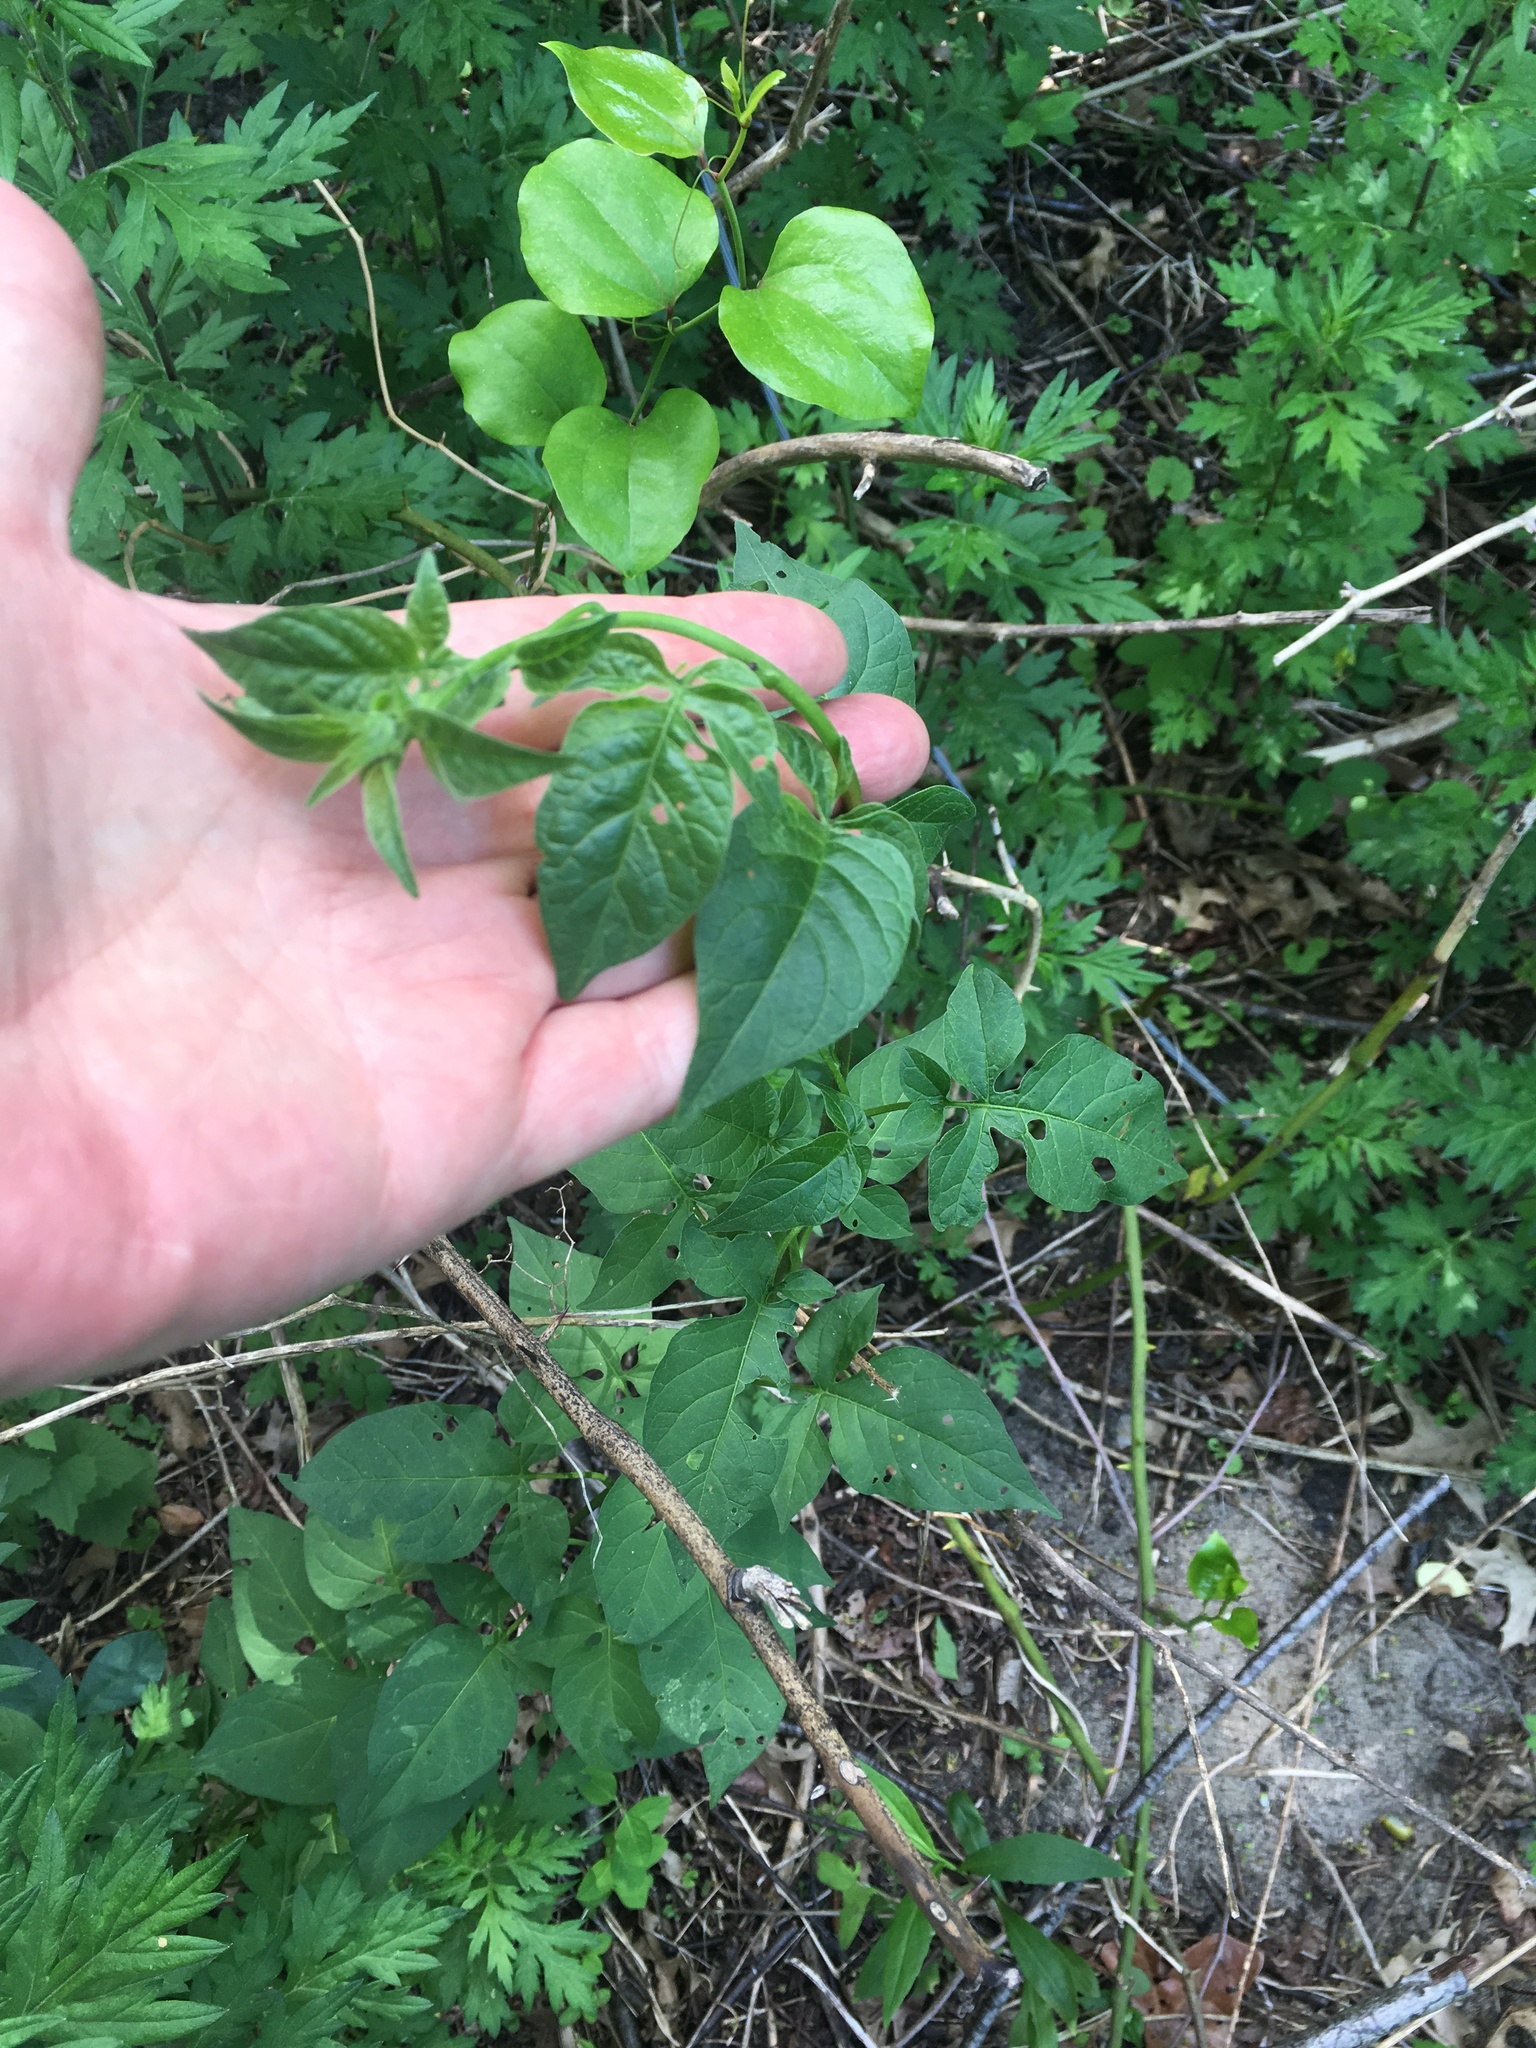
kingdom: Plantae
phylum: Tracheophyta
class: Magnoliopsida
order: Solanales
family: Solanaceae
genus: Solanum
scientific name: Solanum dulcamara
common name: Climbing nightshade
